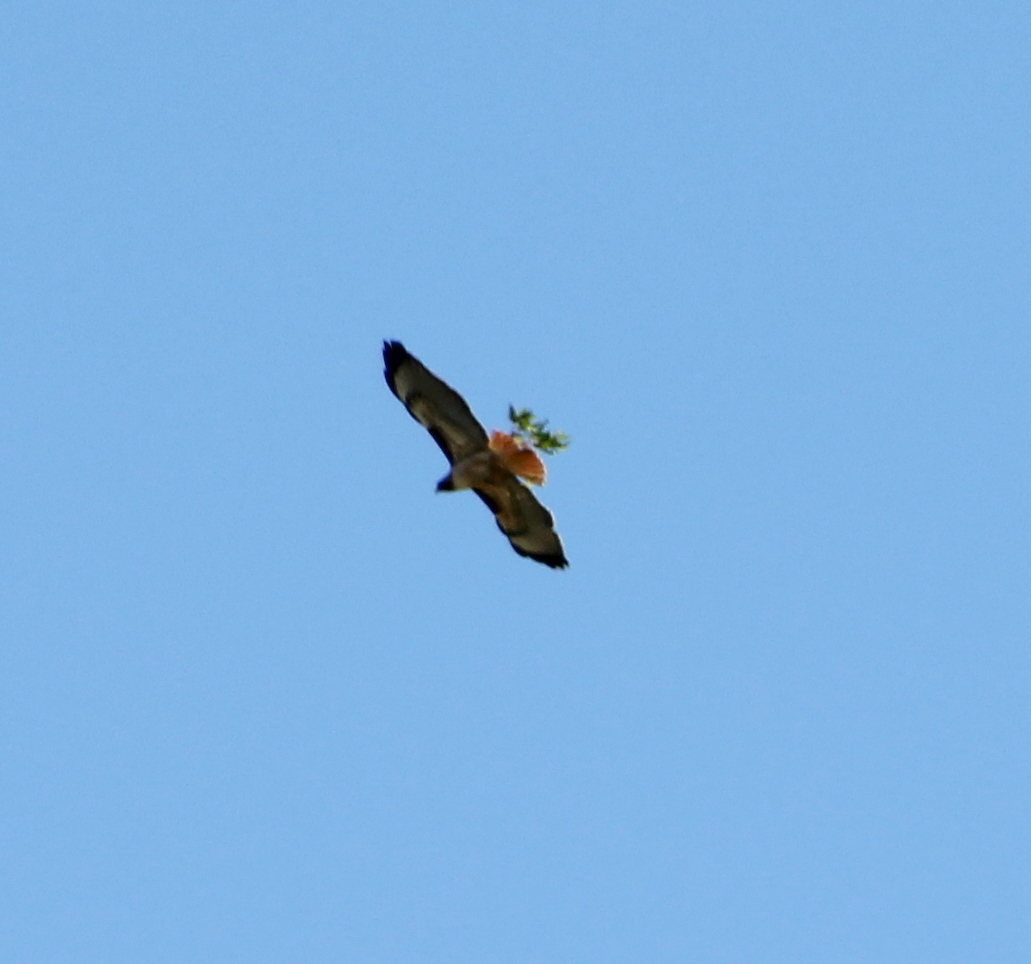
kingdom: Animalia
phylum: Chordata
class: Aves
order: Accipitriformes
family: Accipitridae
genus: Buteo
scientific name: Buteo jamaicensis
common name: Red-tailed hawk
